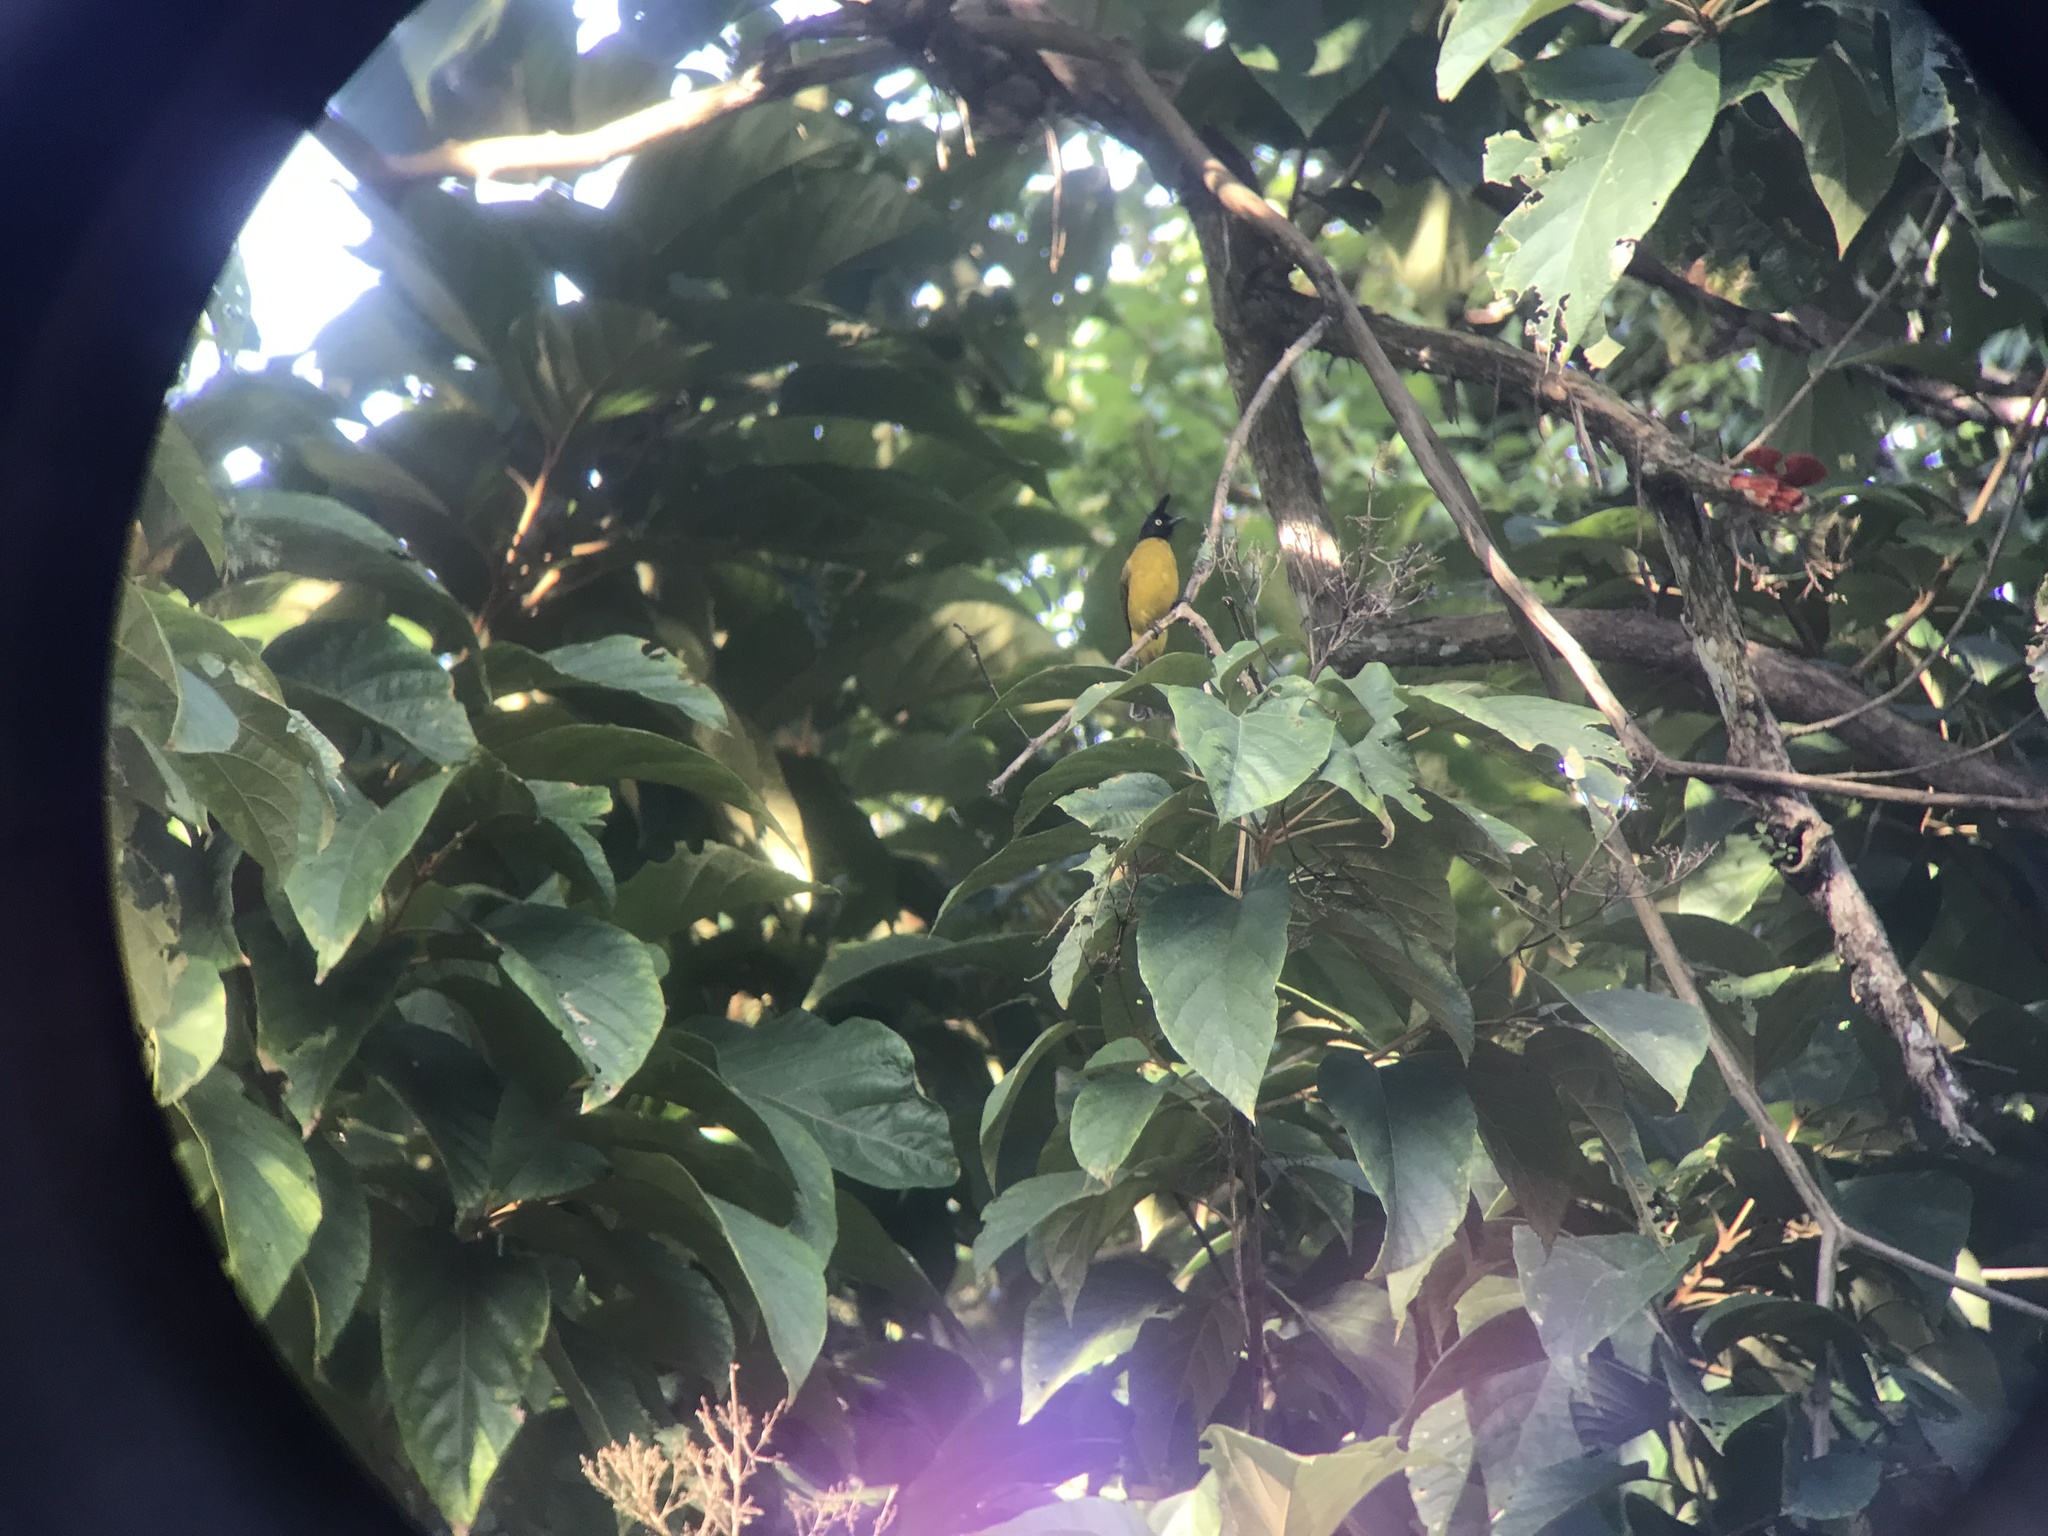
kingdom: Animalia
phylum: Chordata
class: Aves
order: Passeriformes
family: Pycnonotidae
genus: Pycnonotus
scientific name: Pycnonotus flaviventris
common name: Black-crested bulbul
